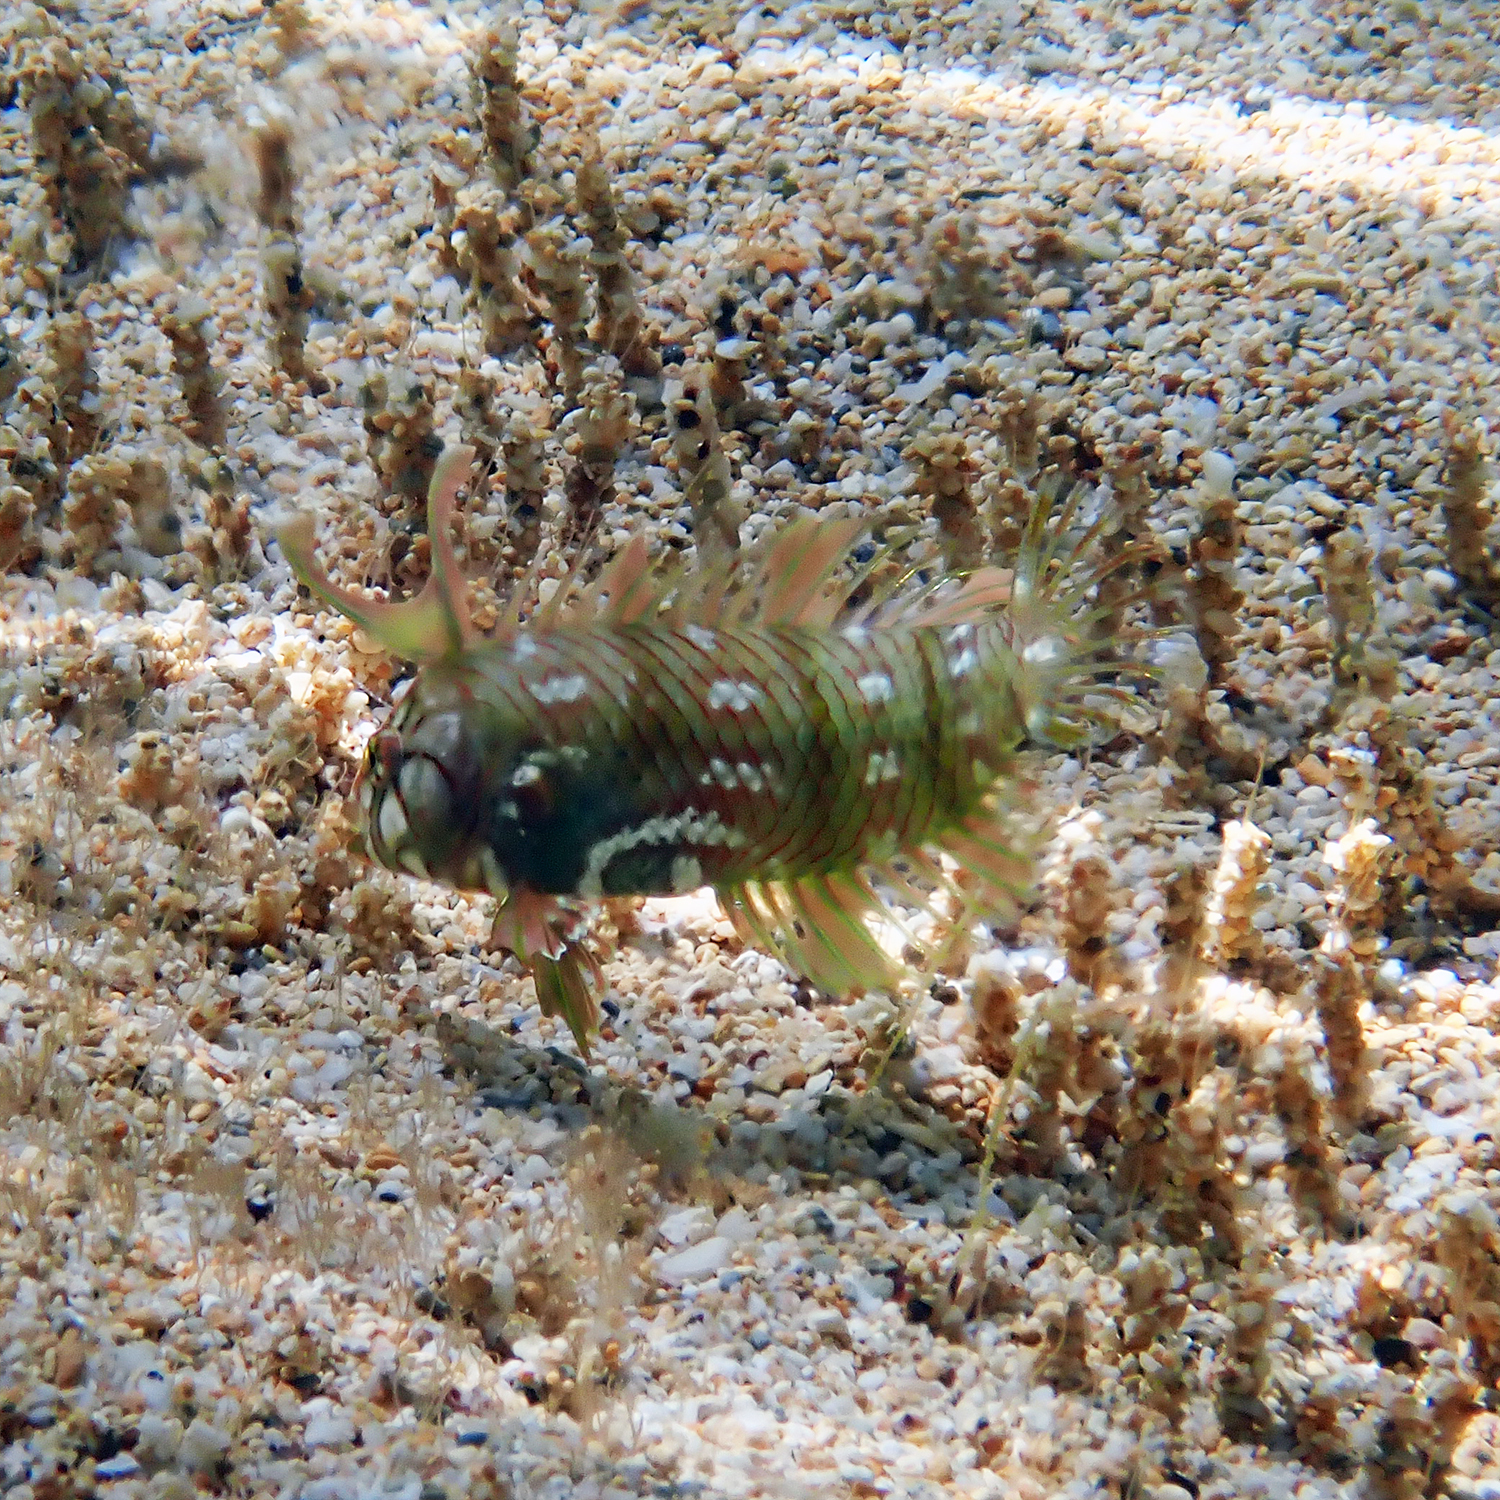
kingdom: Animalia
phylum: Chordata
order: Perciformes
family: Labridae
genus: Novaculichthys
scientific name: Novaculichthys taeniourus
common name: Rockmover wrasse
